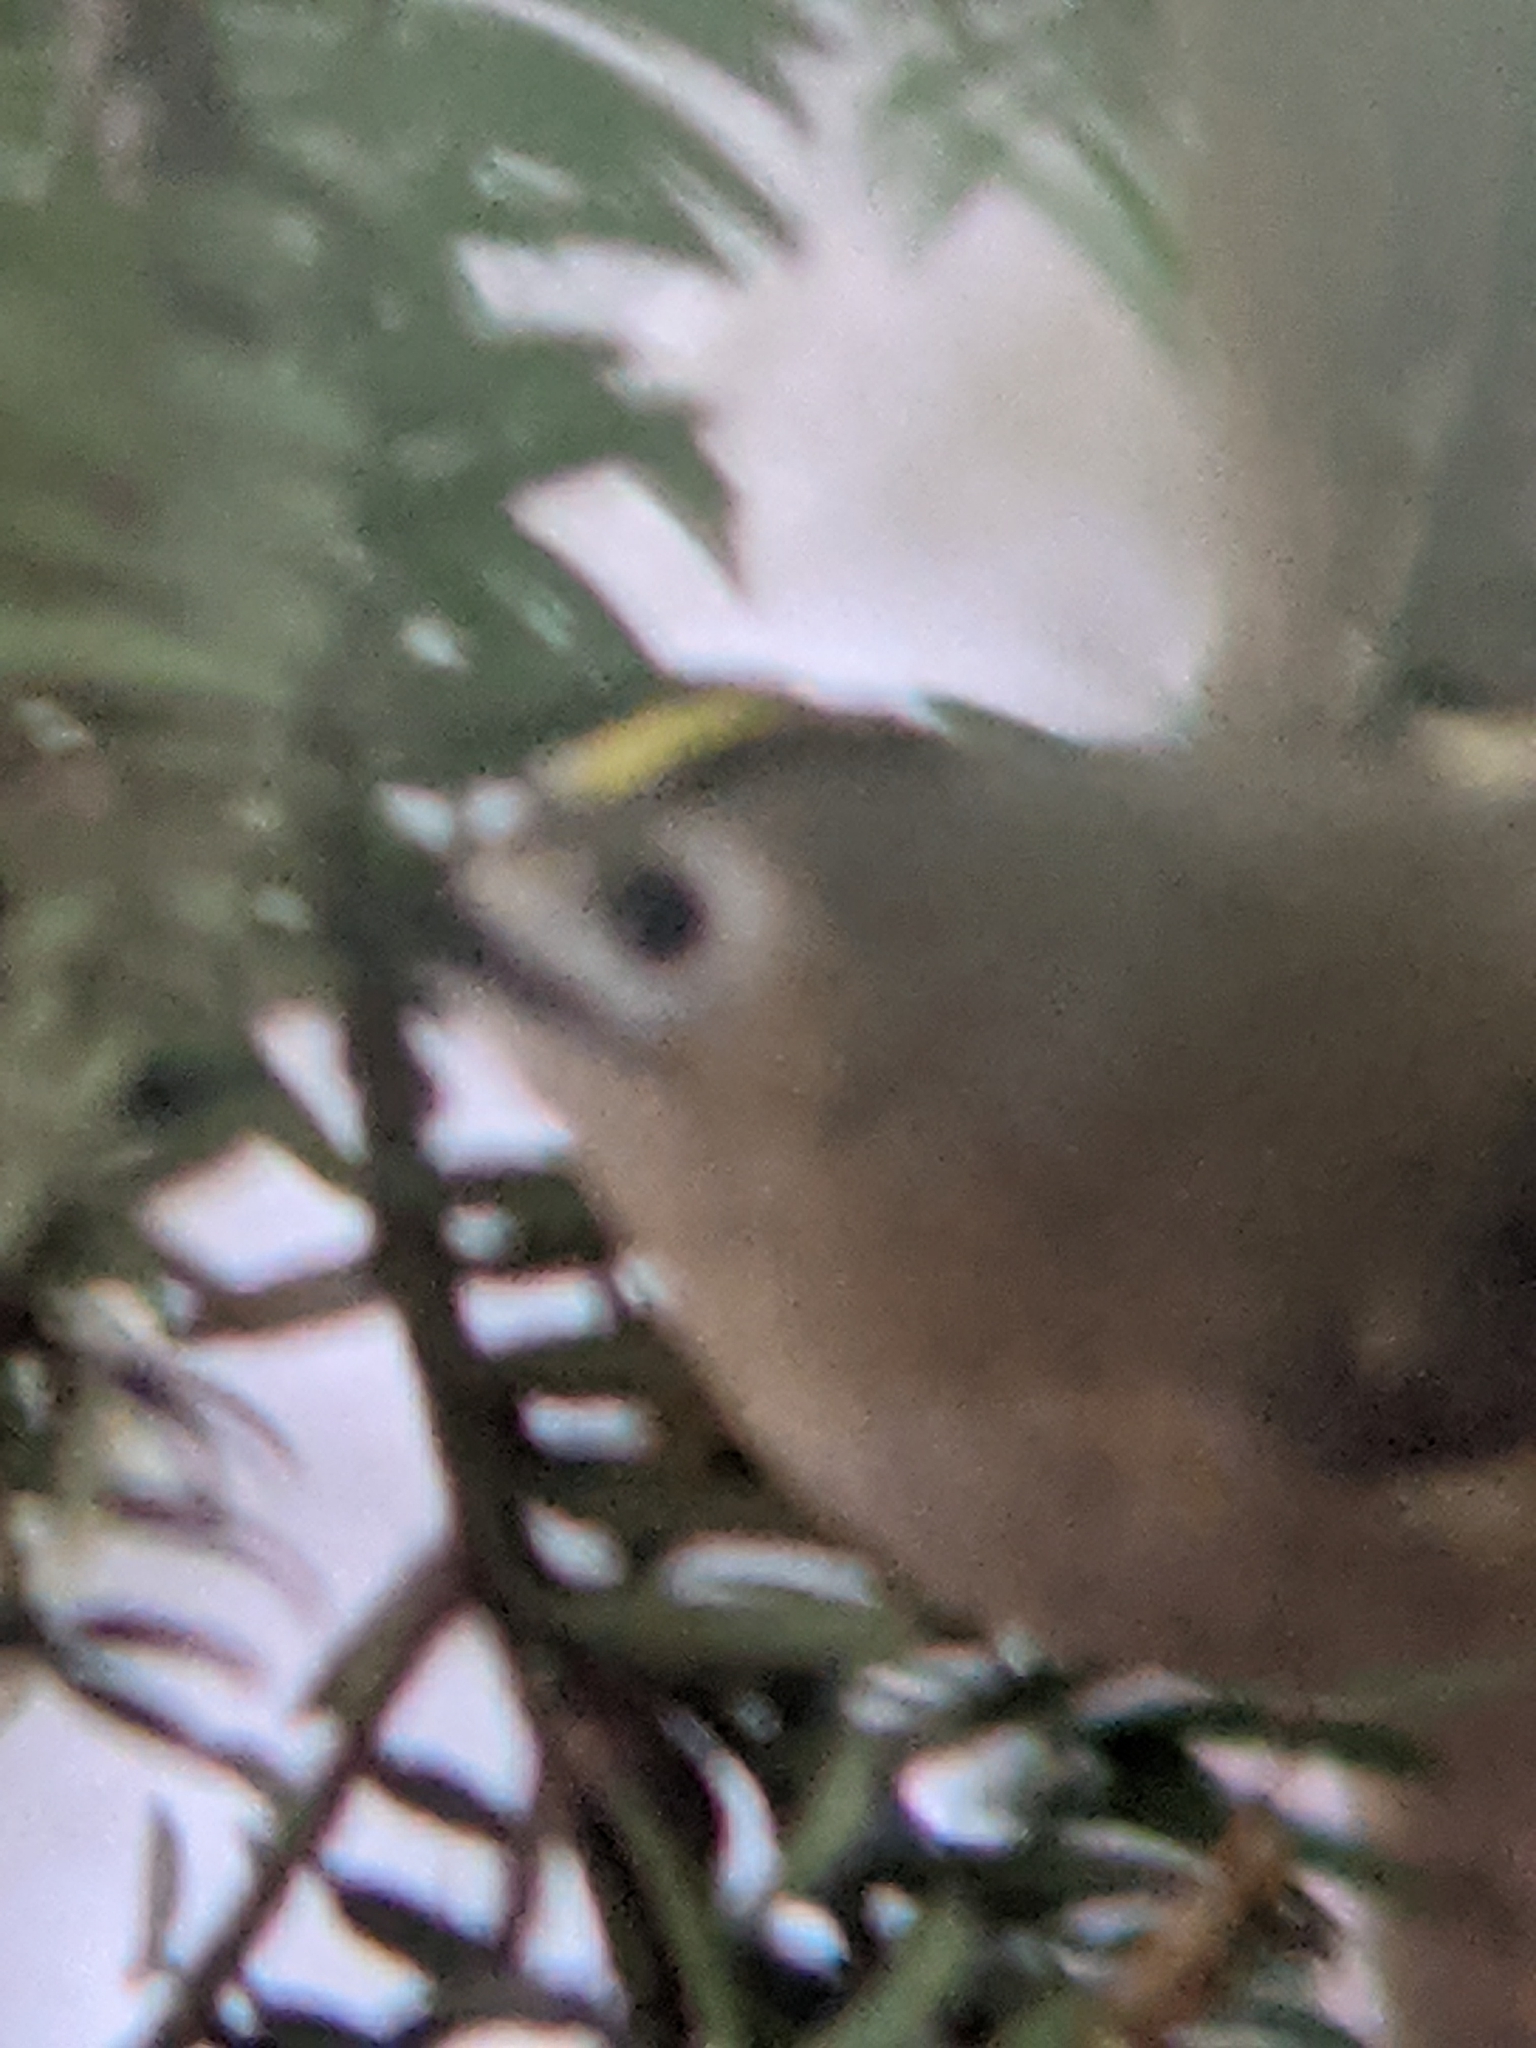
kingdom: Animalia
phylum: Chordata
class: Aves
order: Passeriformes
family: Regulidae
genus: Regulus
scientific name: Regulus regulus
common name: Goldcrest
